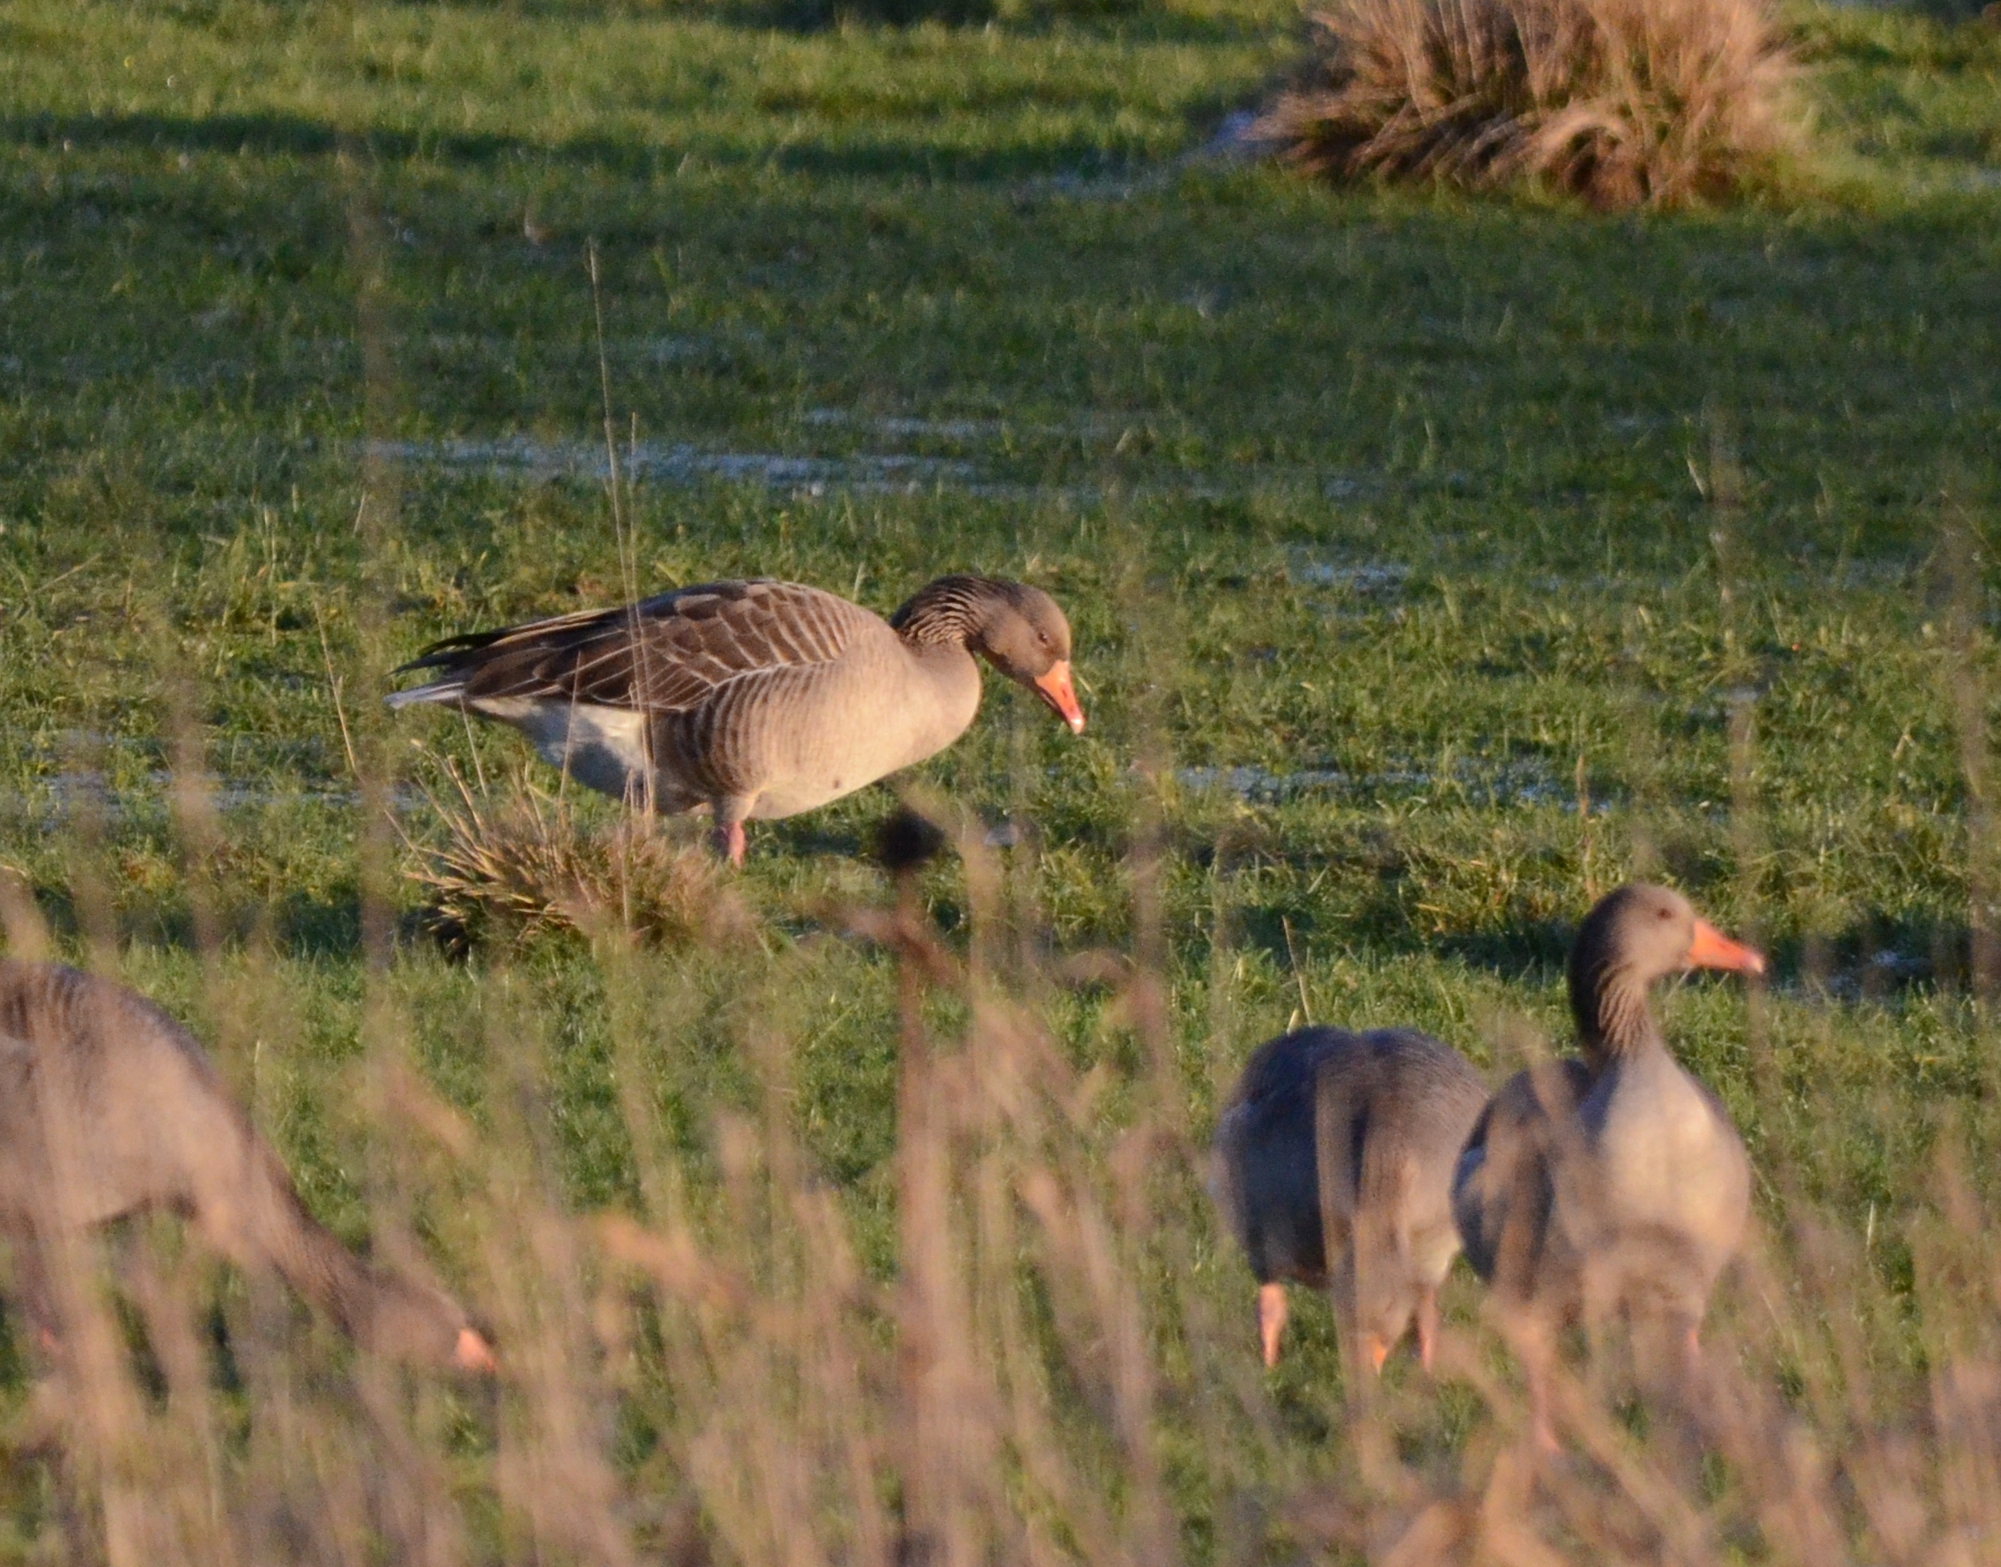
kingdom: Animalia
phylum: Chordata
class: Aves
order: Anseriformes
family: Anatidae
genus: Anser
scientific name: Anser anser
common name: Greylag goose
